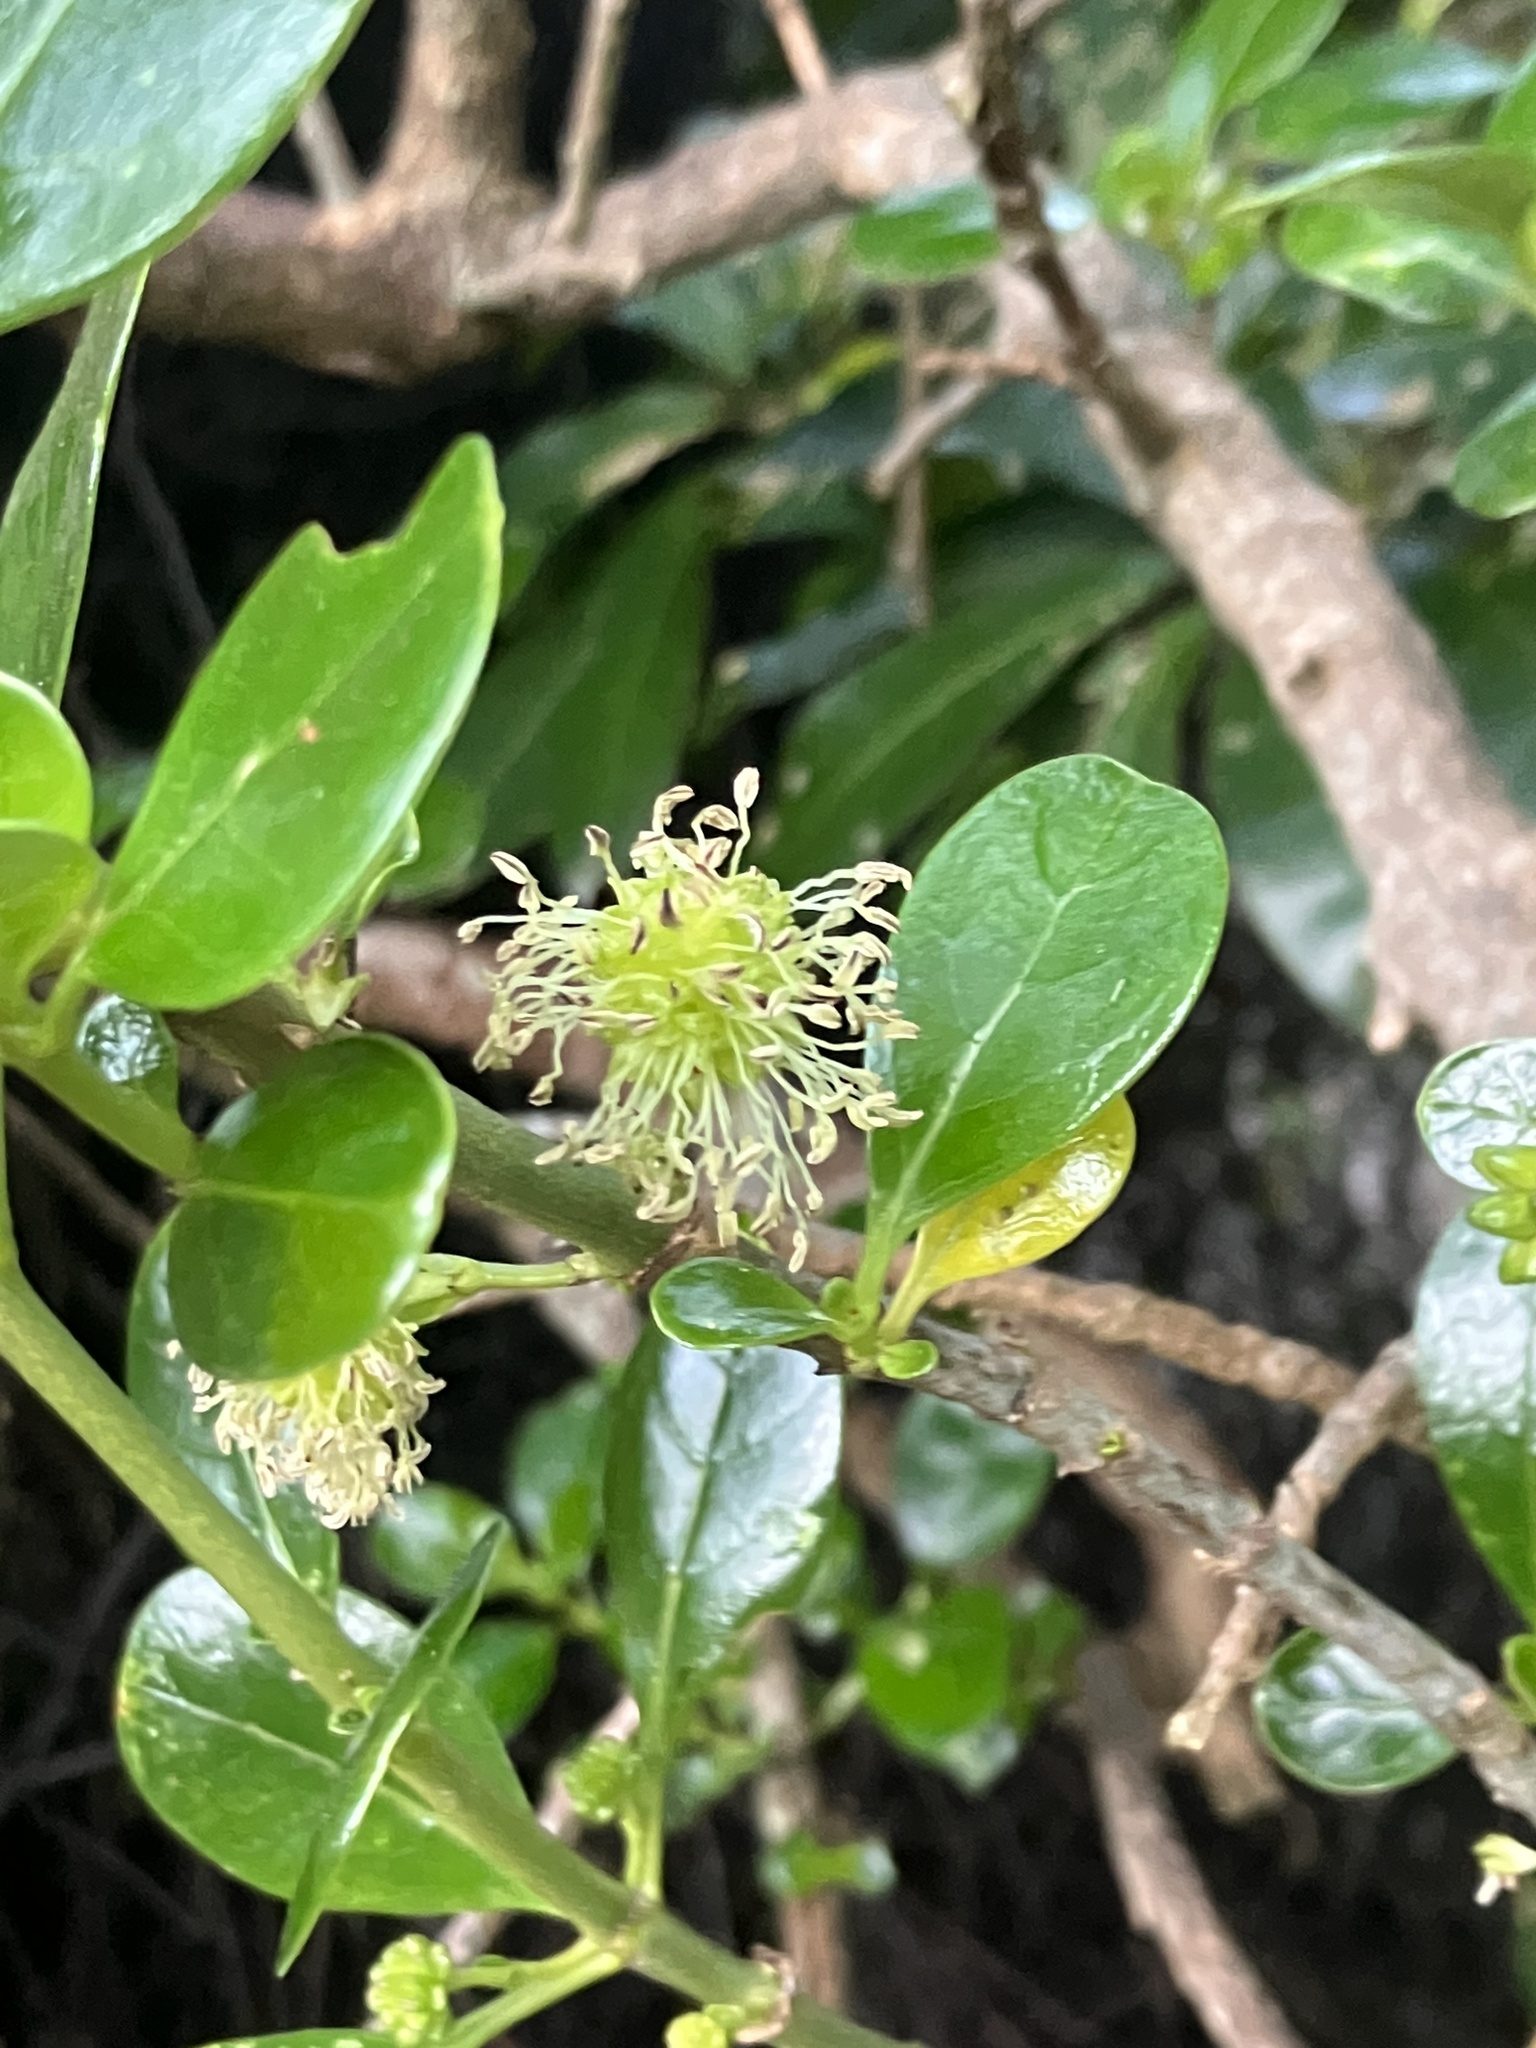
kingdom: Plantae
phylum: Tracheophyta
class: Magnoliopsida
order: Gentianales
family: Rubiaceae
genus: Coprosma
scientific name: Coprosma repens
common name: Tree bedstraw
